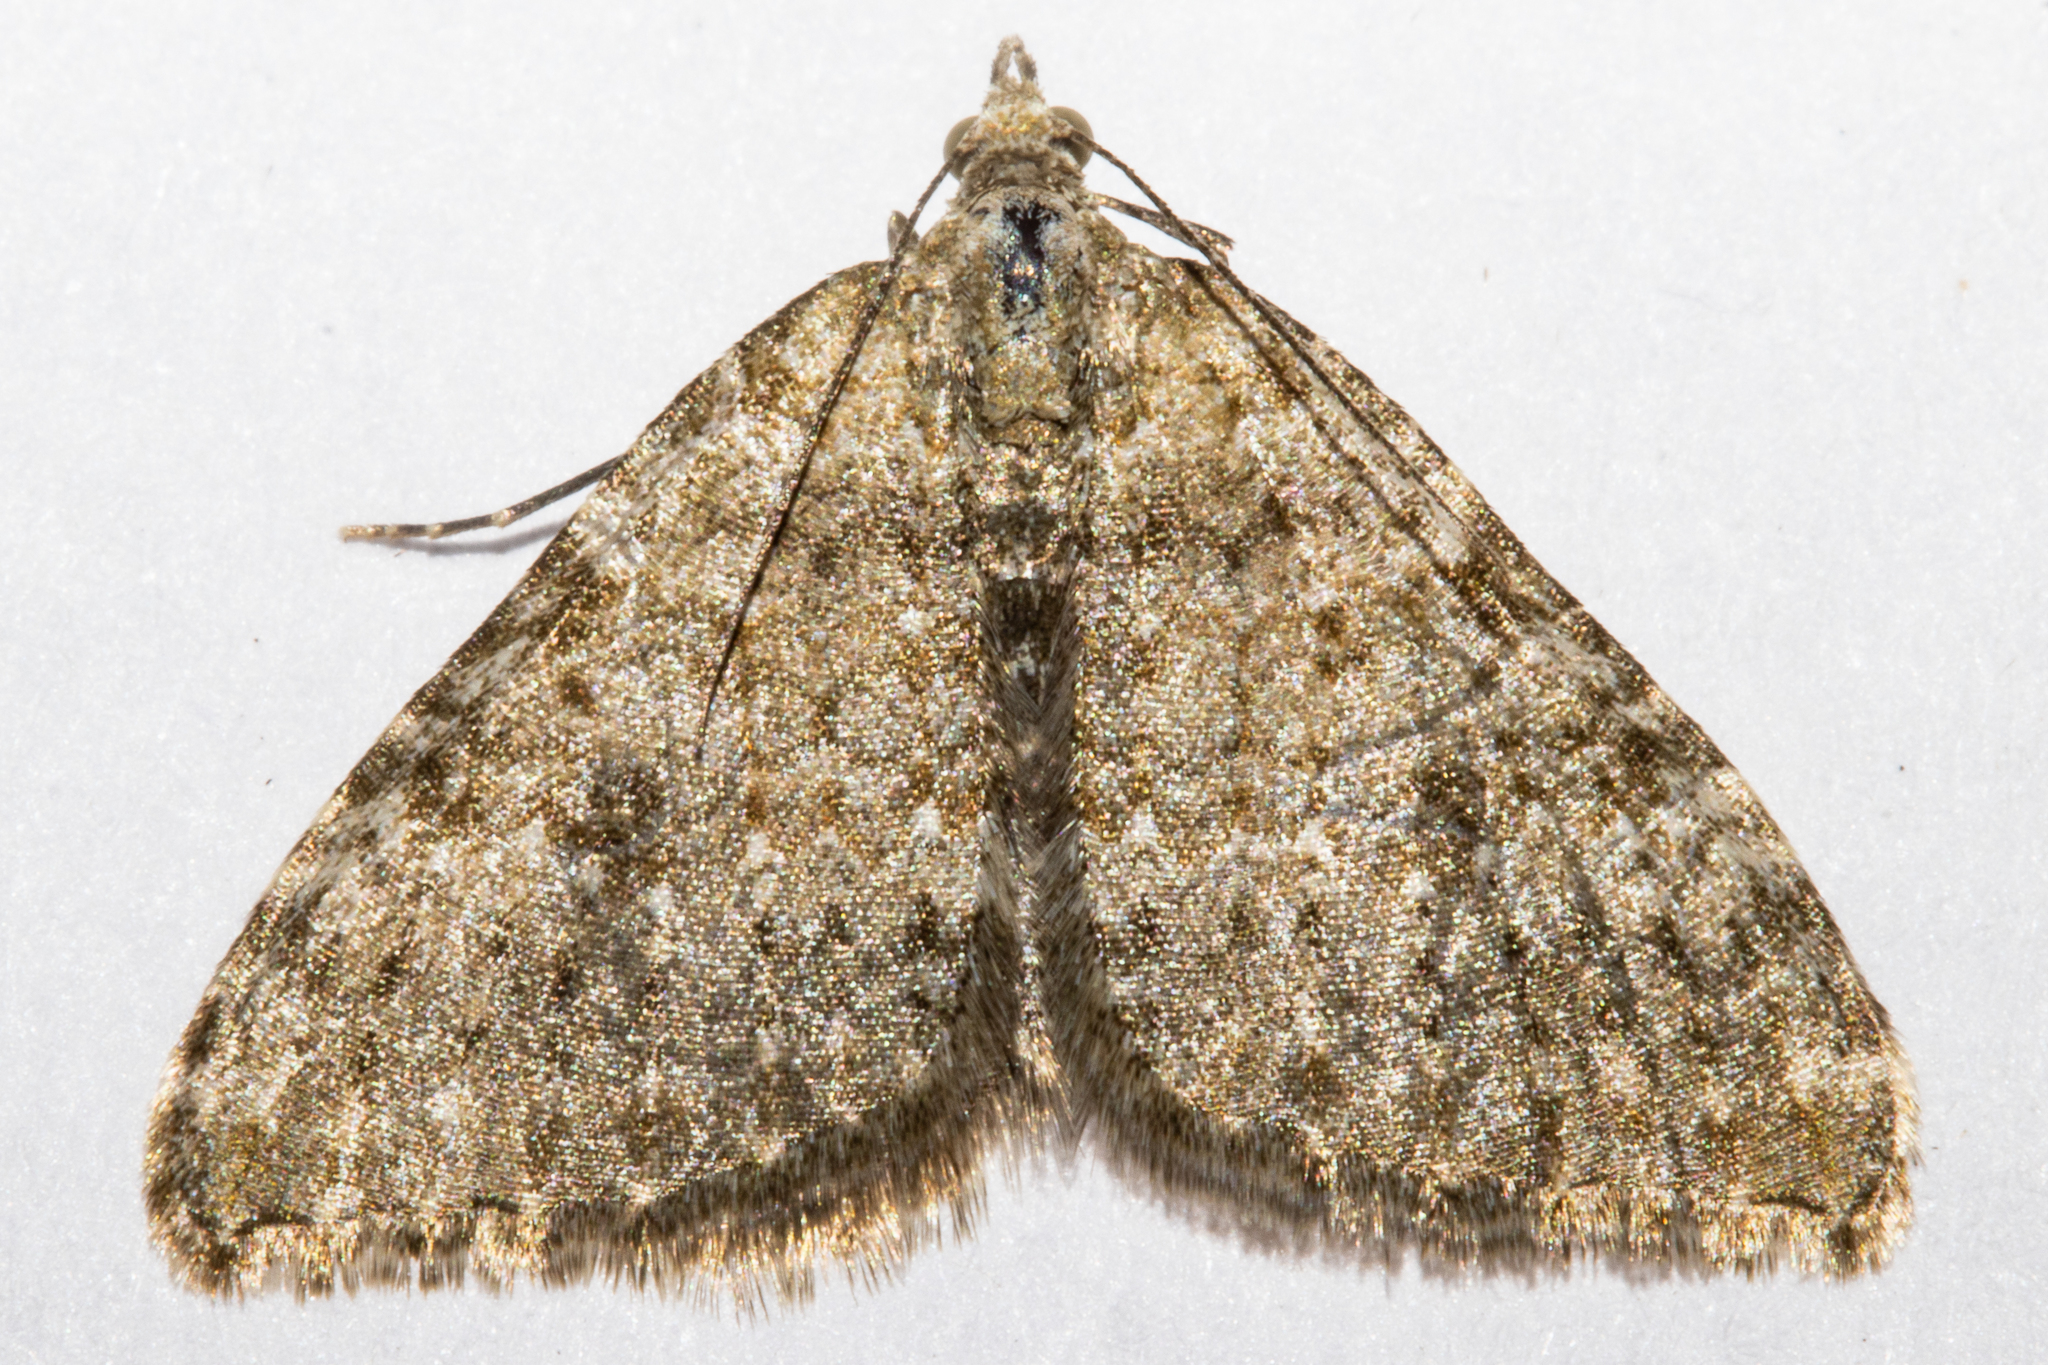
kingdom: Animalia
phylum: Arthropoda
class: Insecta
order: Lepidoptera
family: Geometridae
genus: Helastia
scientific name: Helastia corcularia
